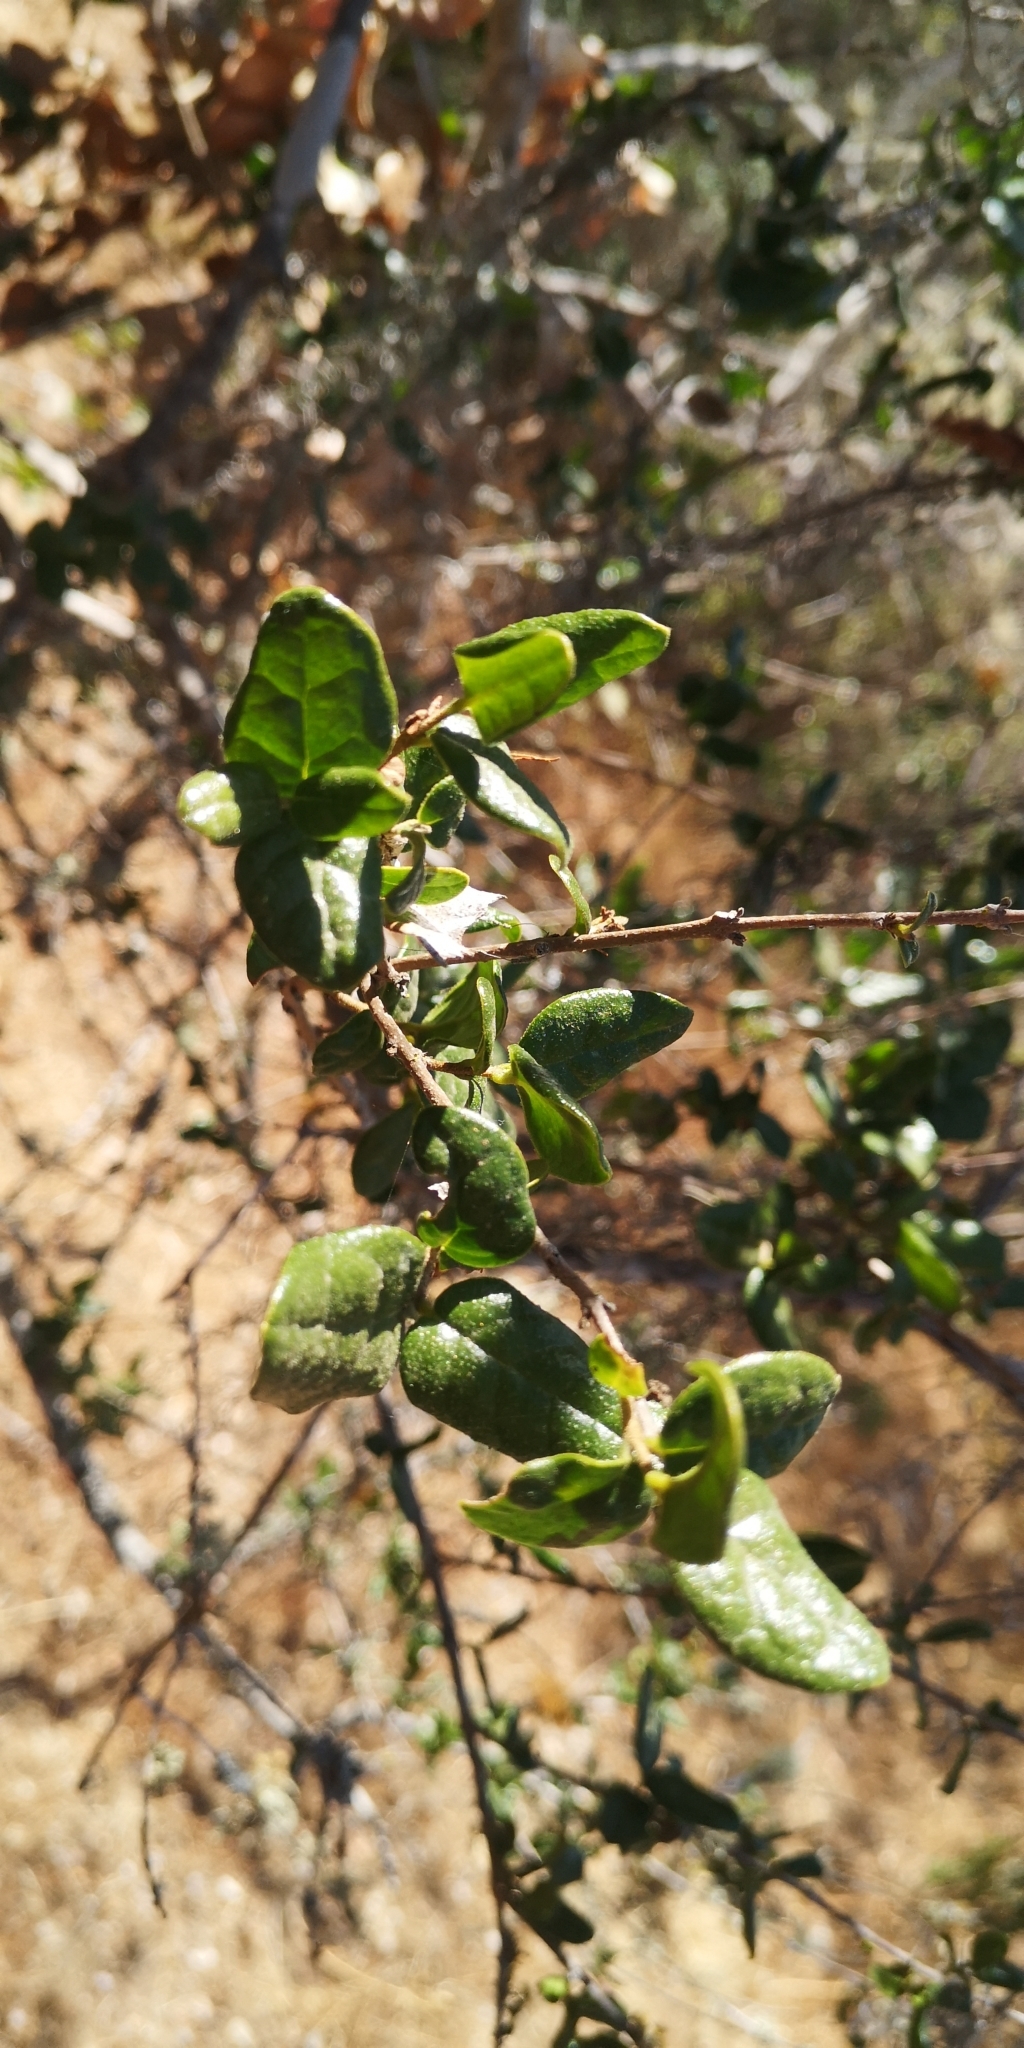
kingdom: Plantae
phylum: Tracheophyta
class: Magnoliopsida
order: Laurales
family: Monimiaceae
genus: Peumus
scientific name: Peumus boldus
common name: Boldo
